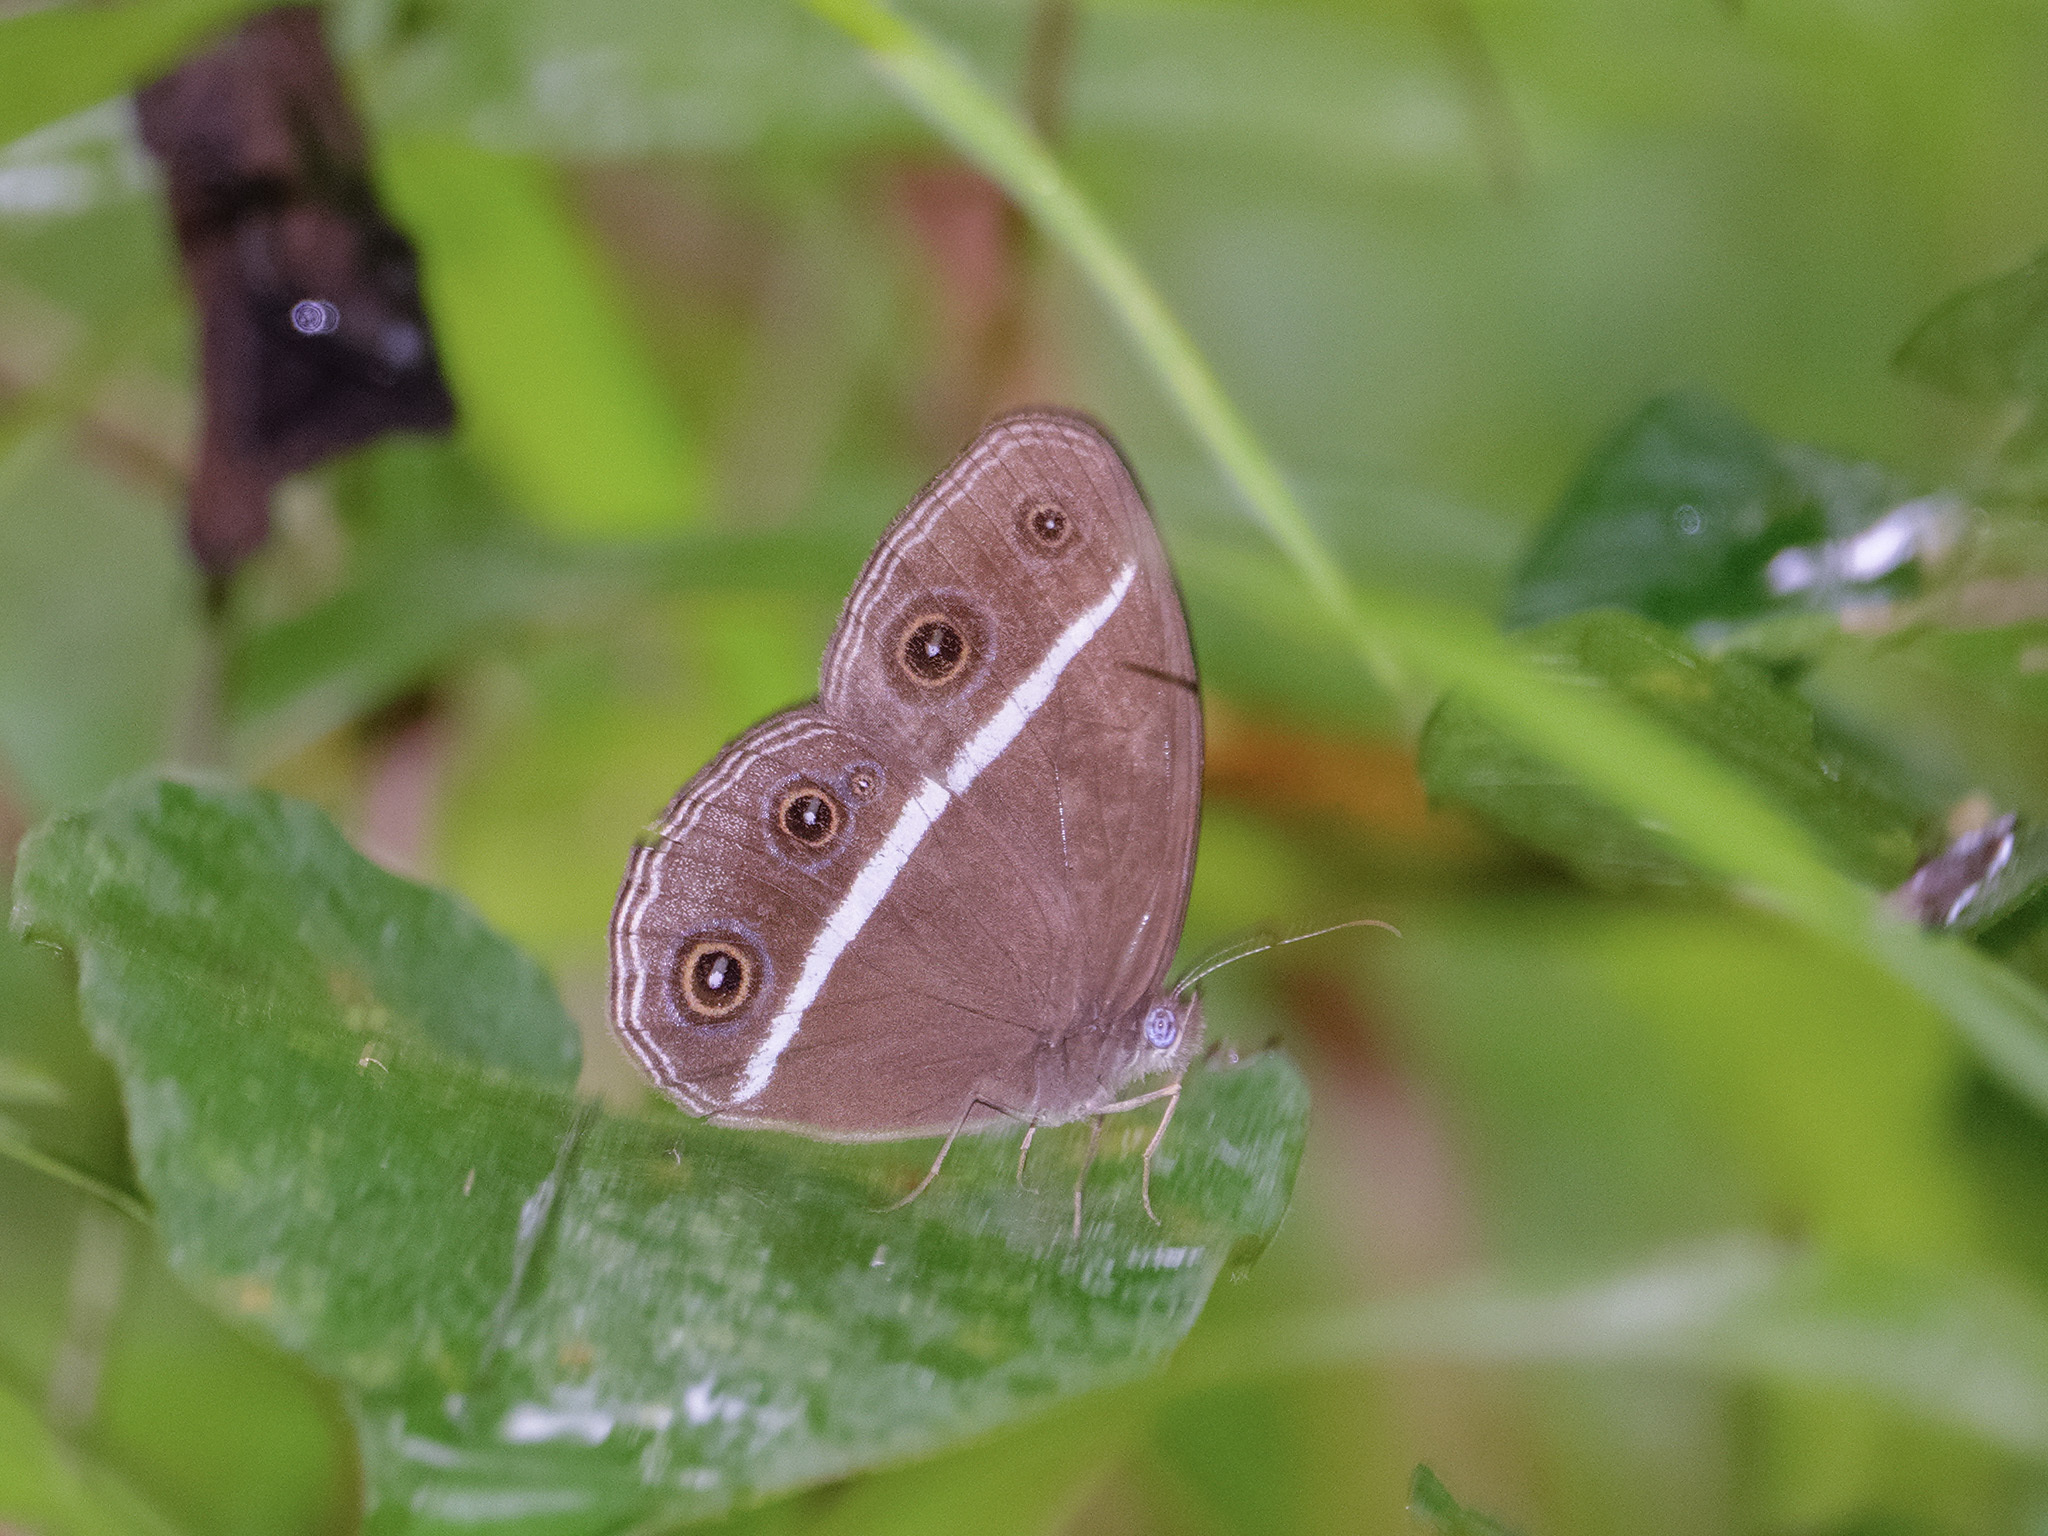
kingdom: Animalia
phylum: Arthropoda
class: Insecta
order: Lepidoptera
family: Nymphalidae
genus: Orsotriaena
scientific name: Orsotriaena medus
